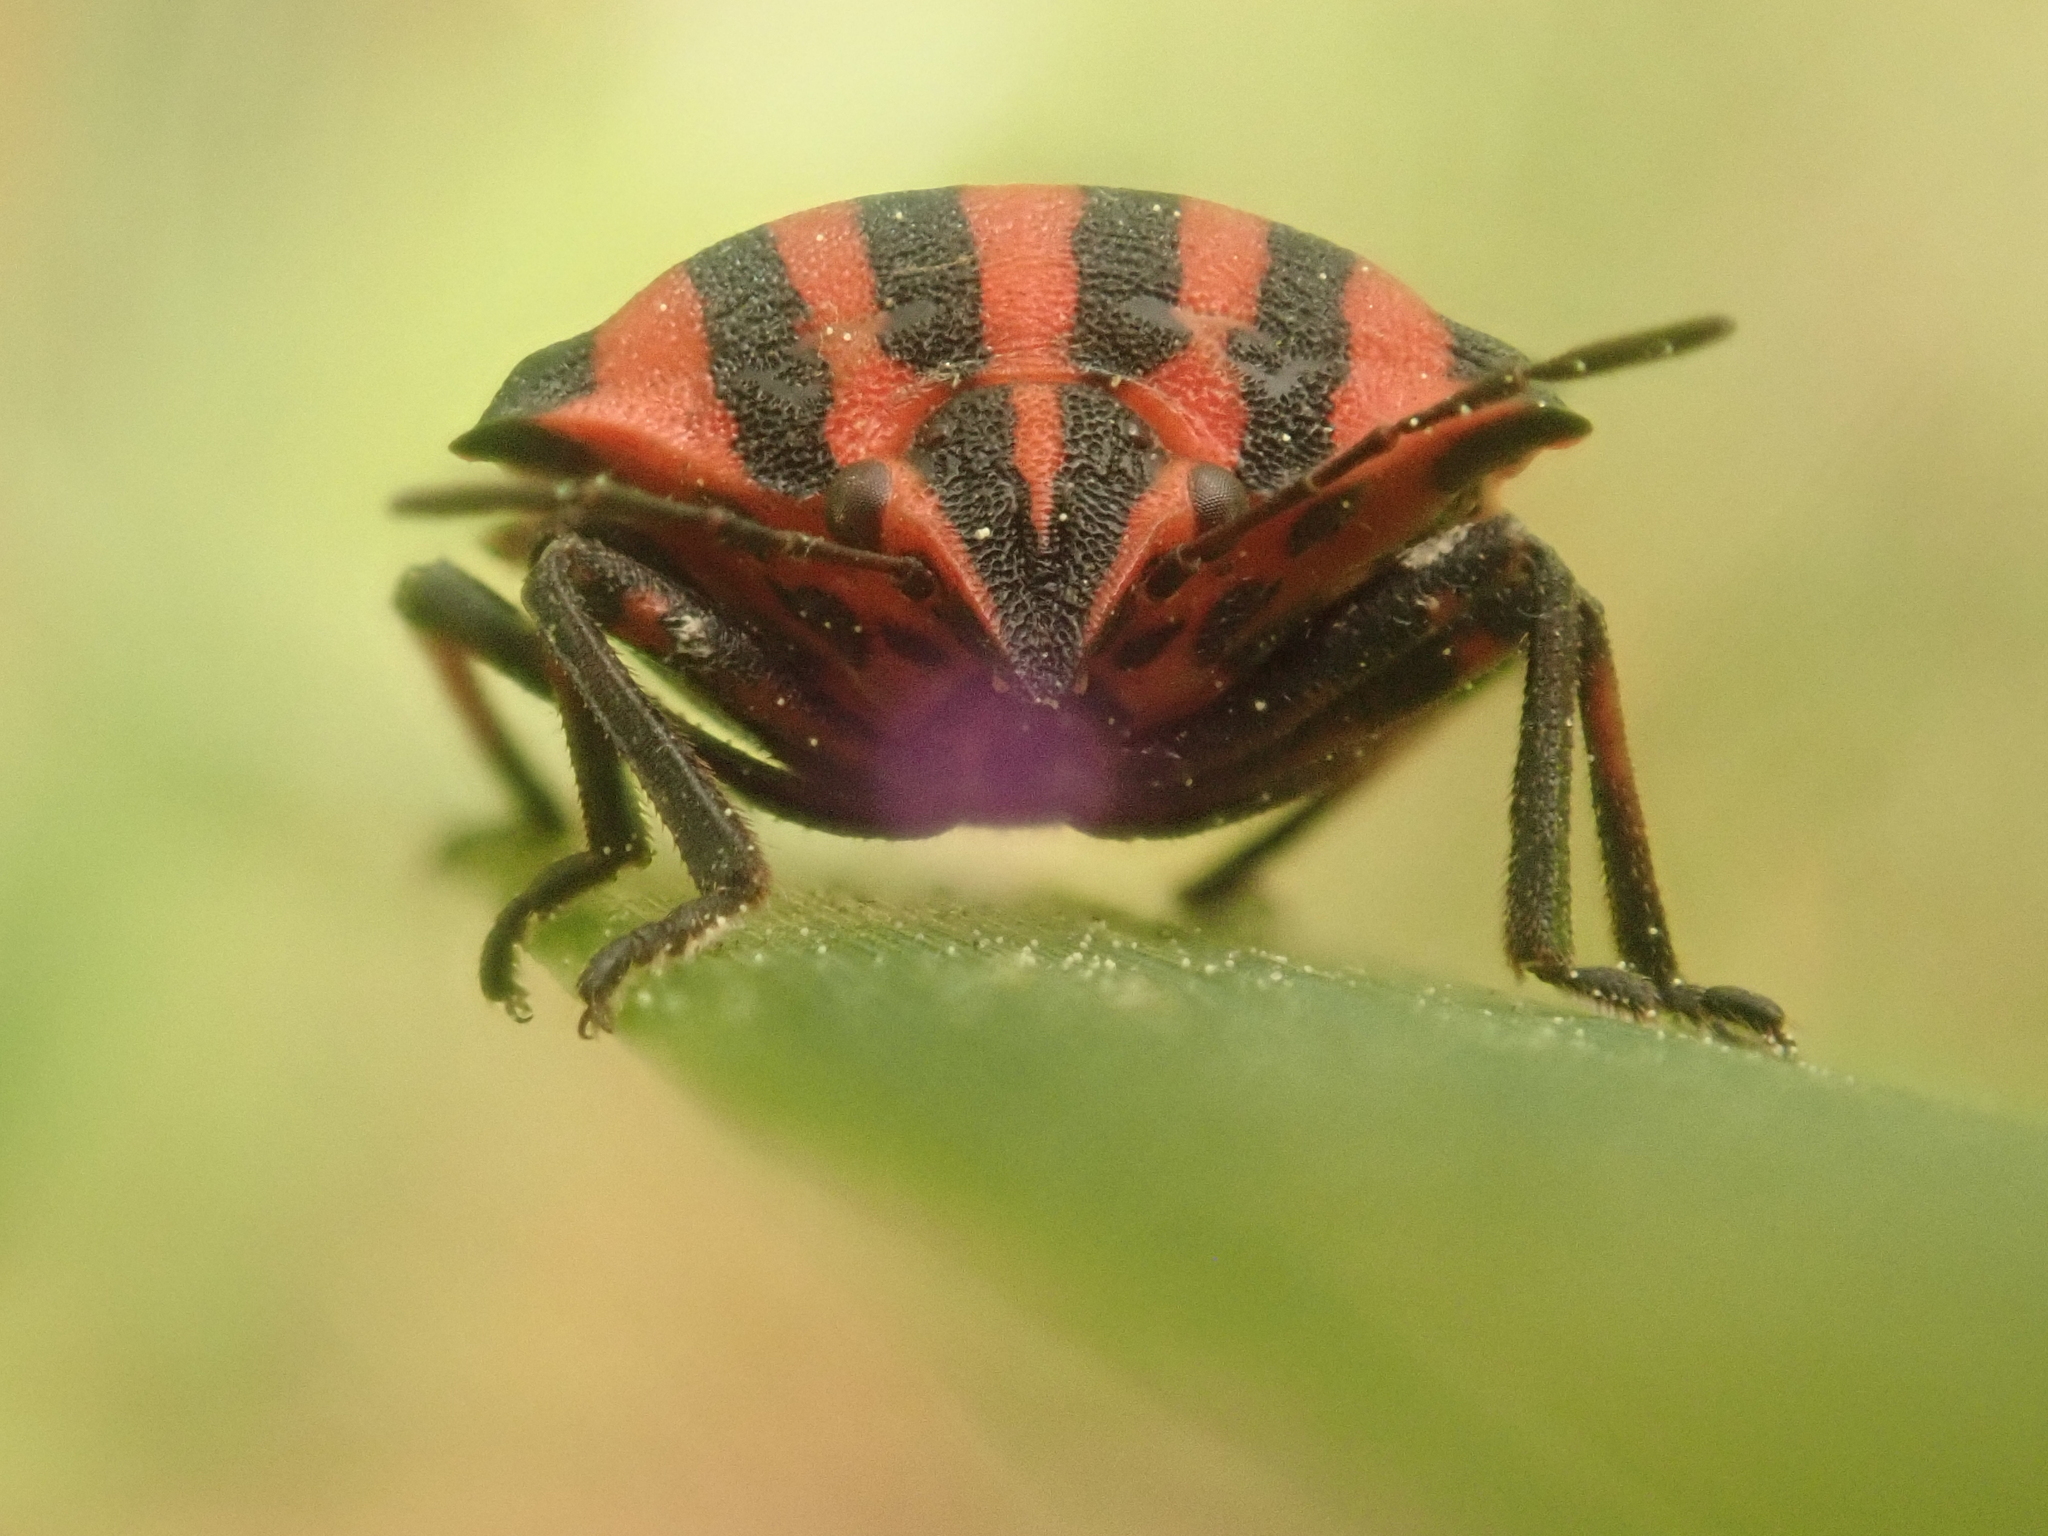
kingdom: Animalia
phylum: Arthropoda
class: Insecta
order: Hemiptera
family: Pentatomidae
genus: Graphosoma
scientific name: Graphosoma italicum
